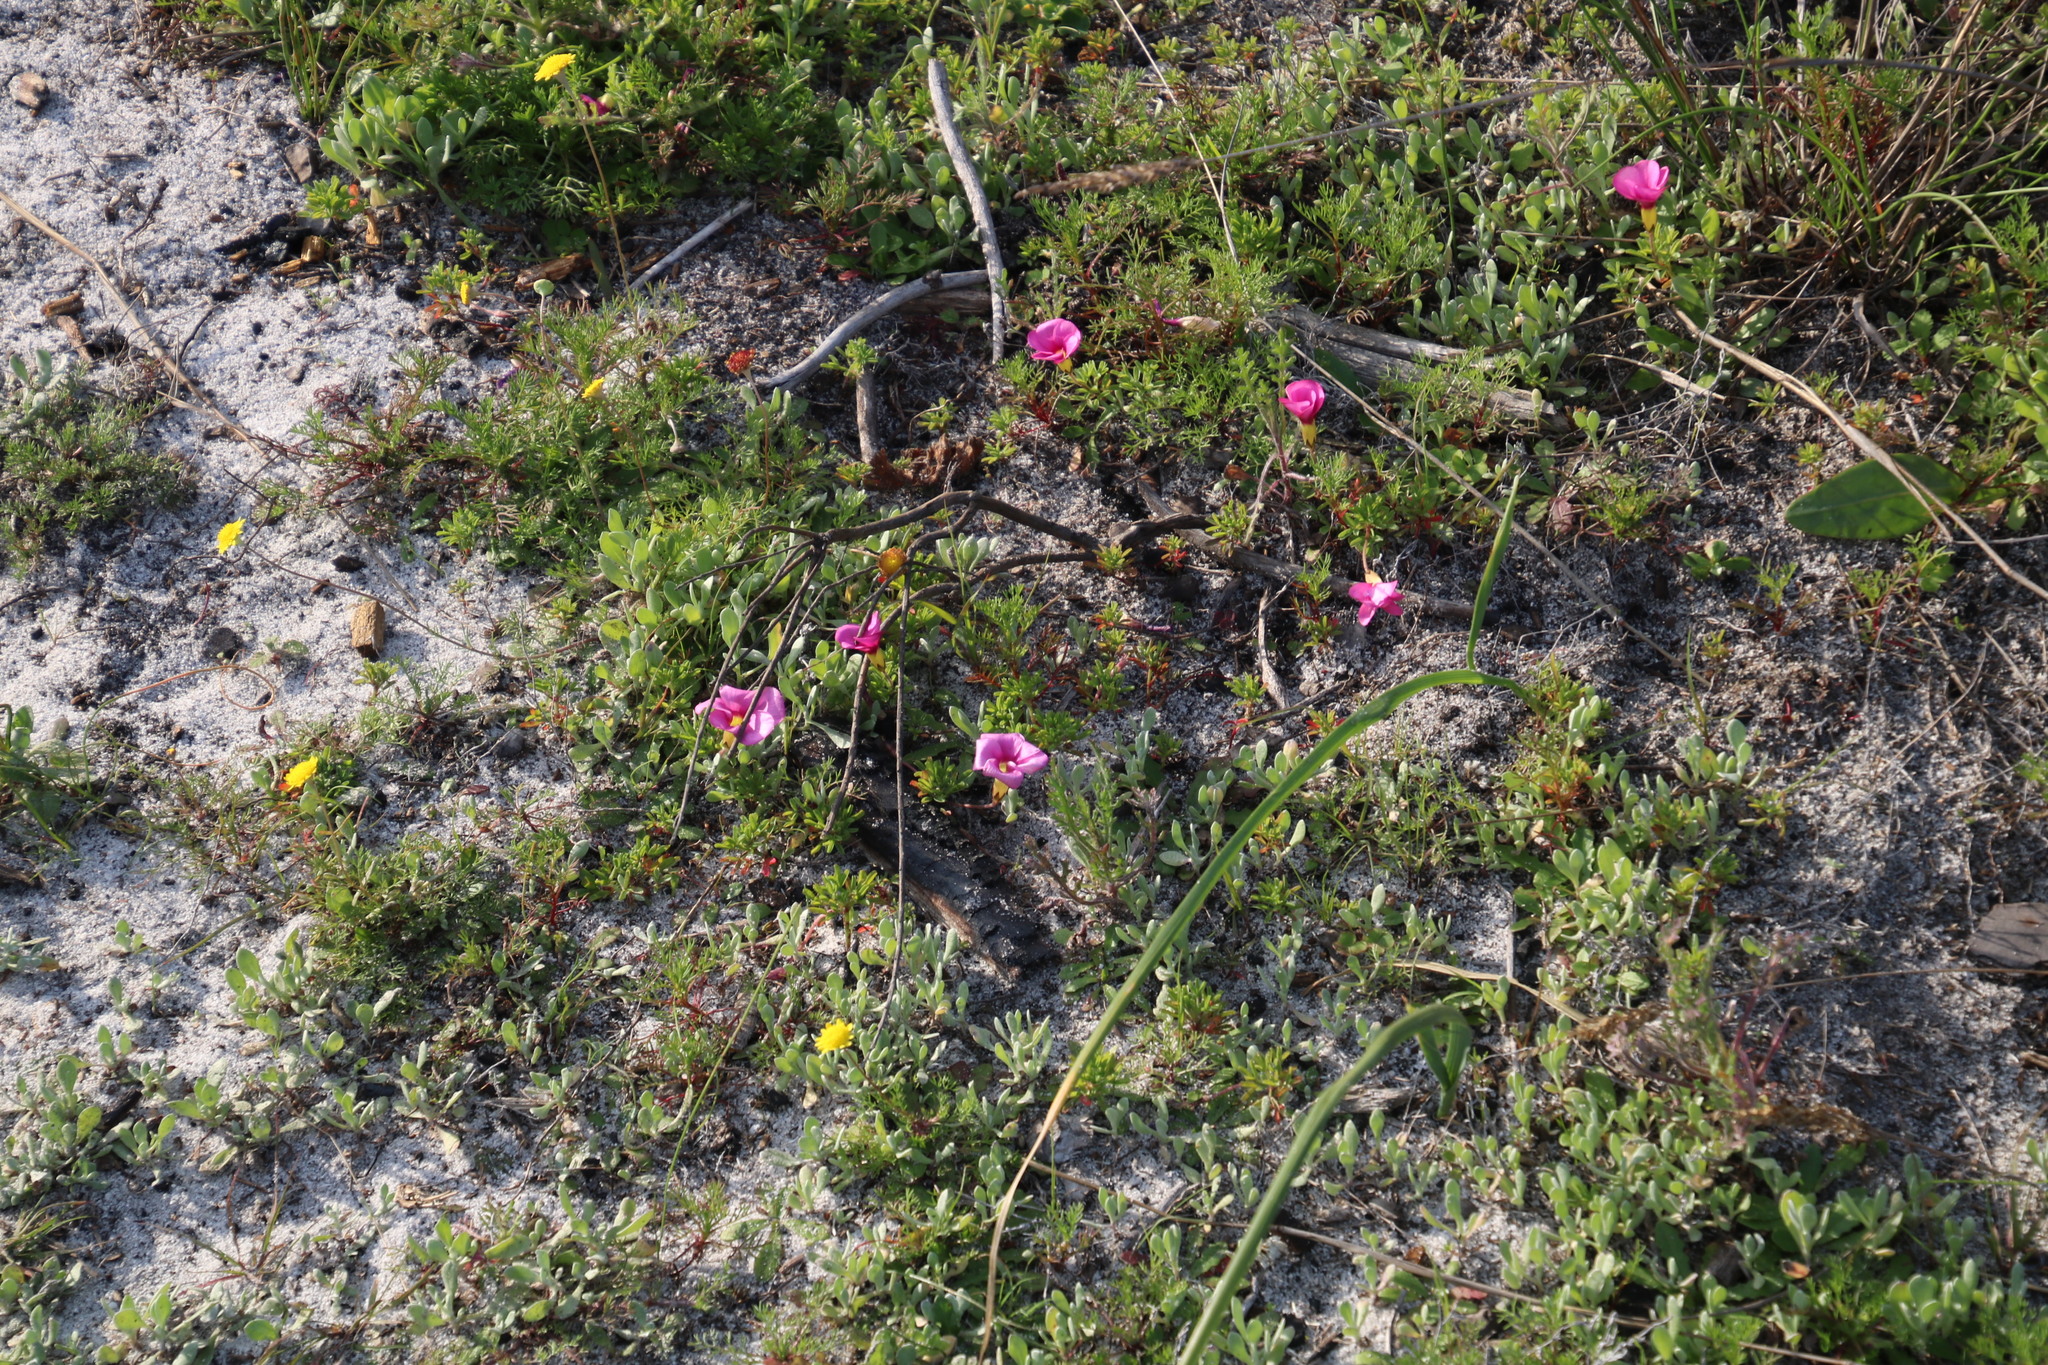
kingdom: Plantae
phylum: Tracheophyta
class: Magnoliopsida
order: Oxalidales
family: Oxalidaceae
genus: Oxalis
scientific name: Oxalis glabra
